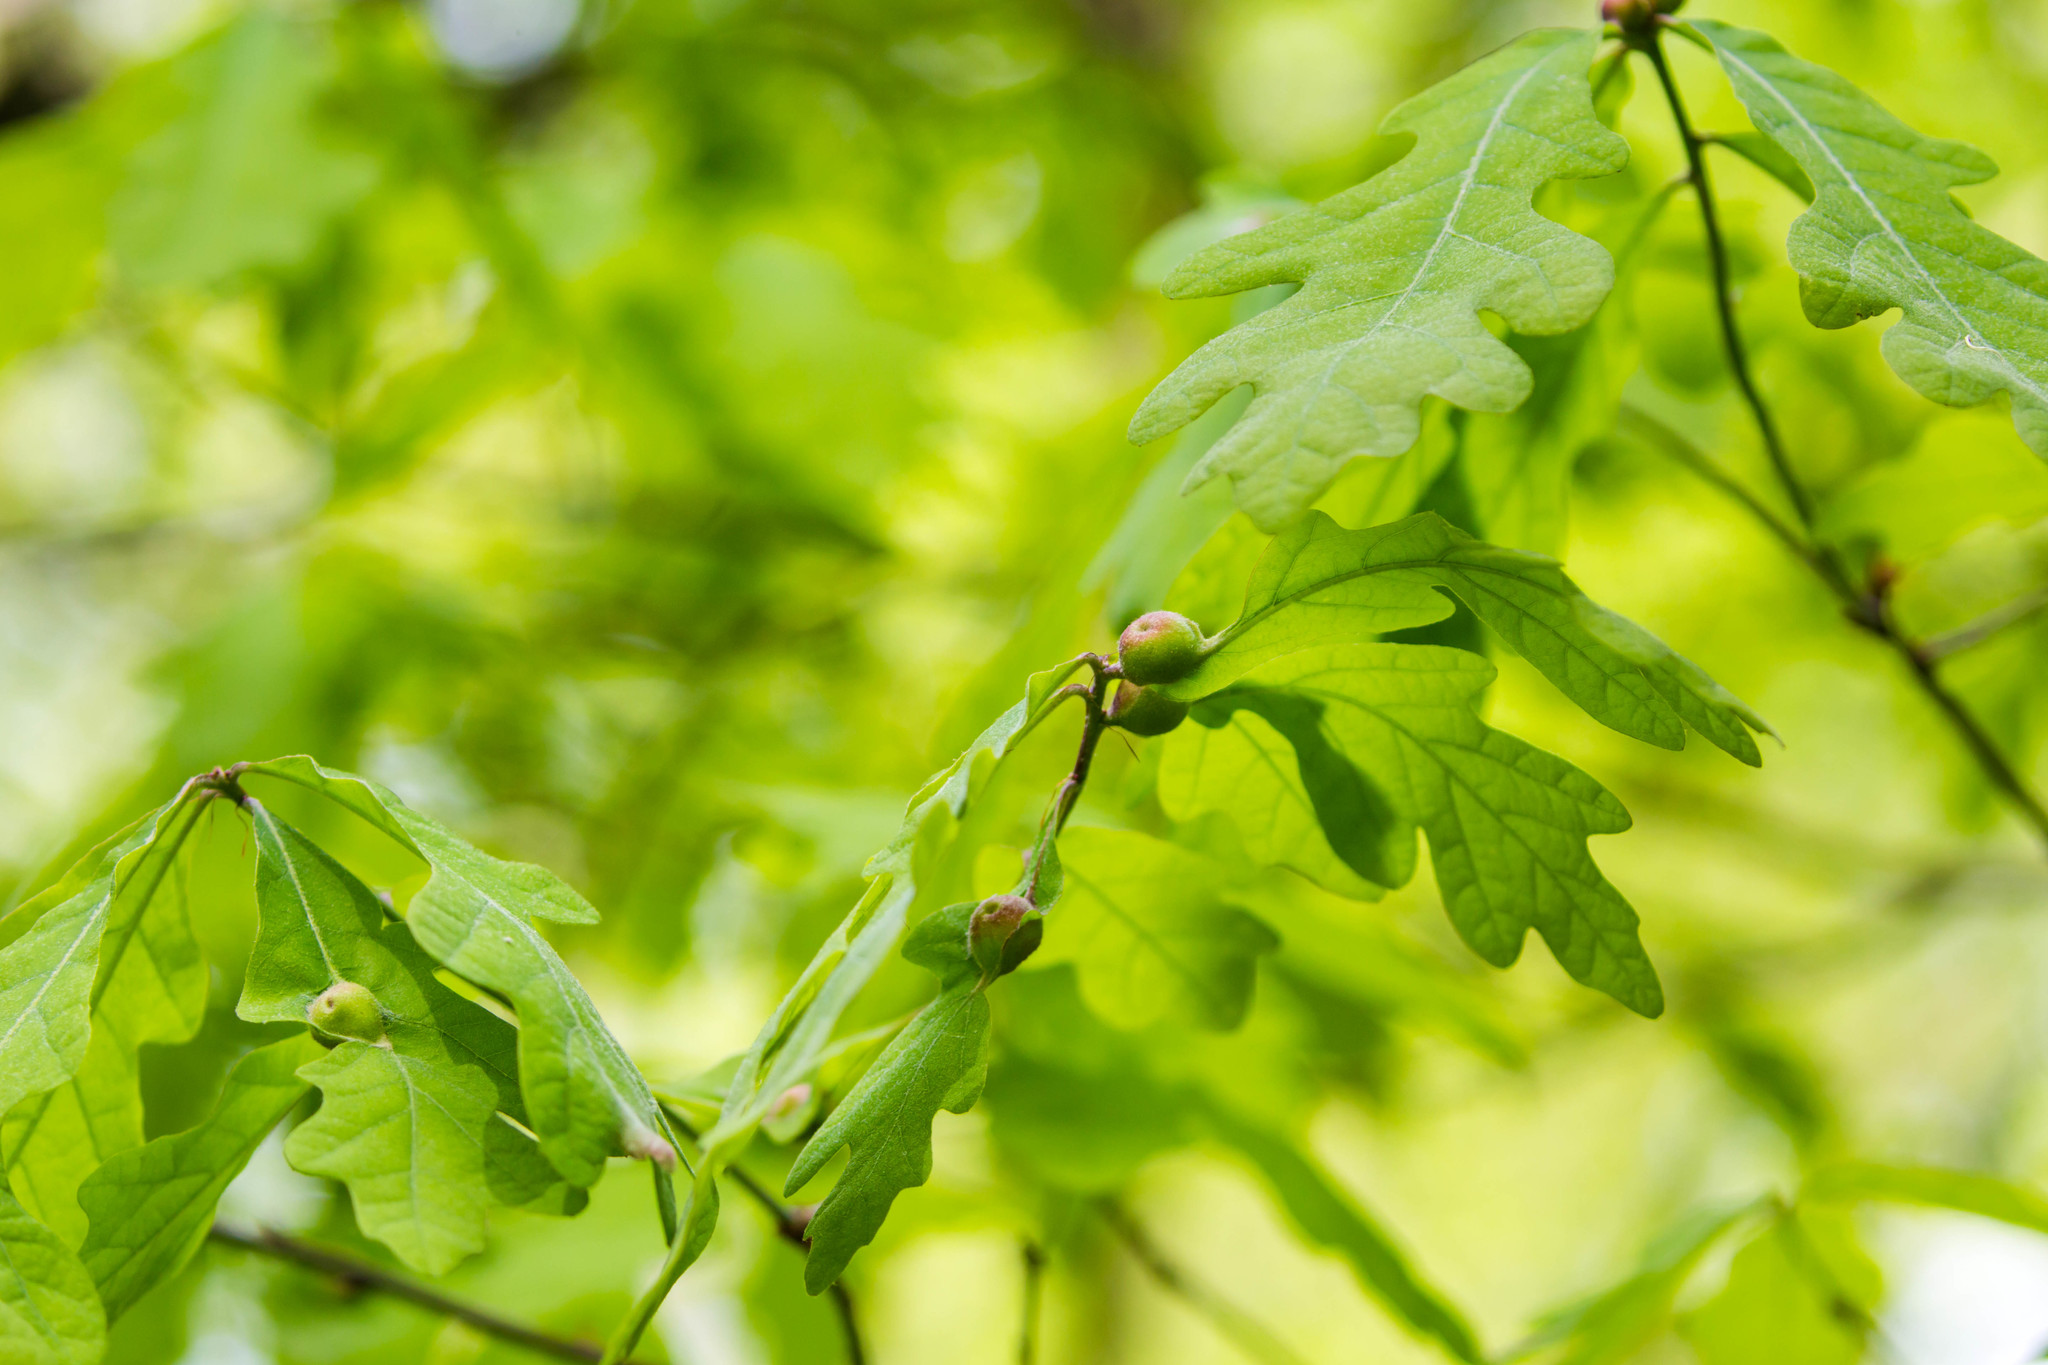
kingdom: Animalia
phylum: Arthropoda
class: Insecta
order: Hymenoptera
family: Cynipidae
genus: Andricus
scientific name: Andricus
